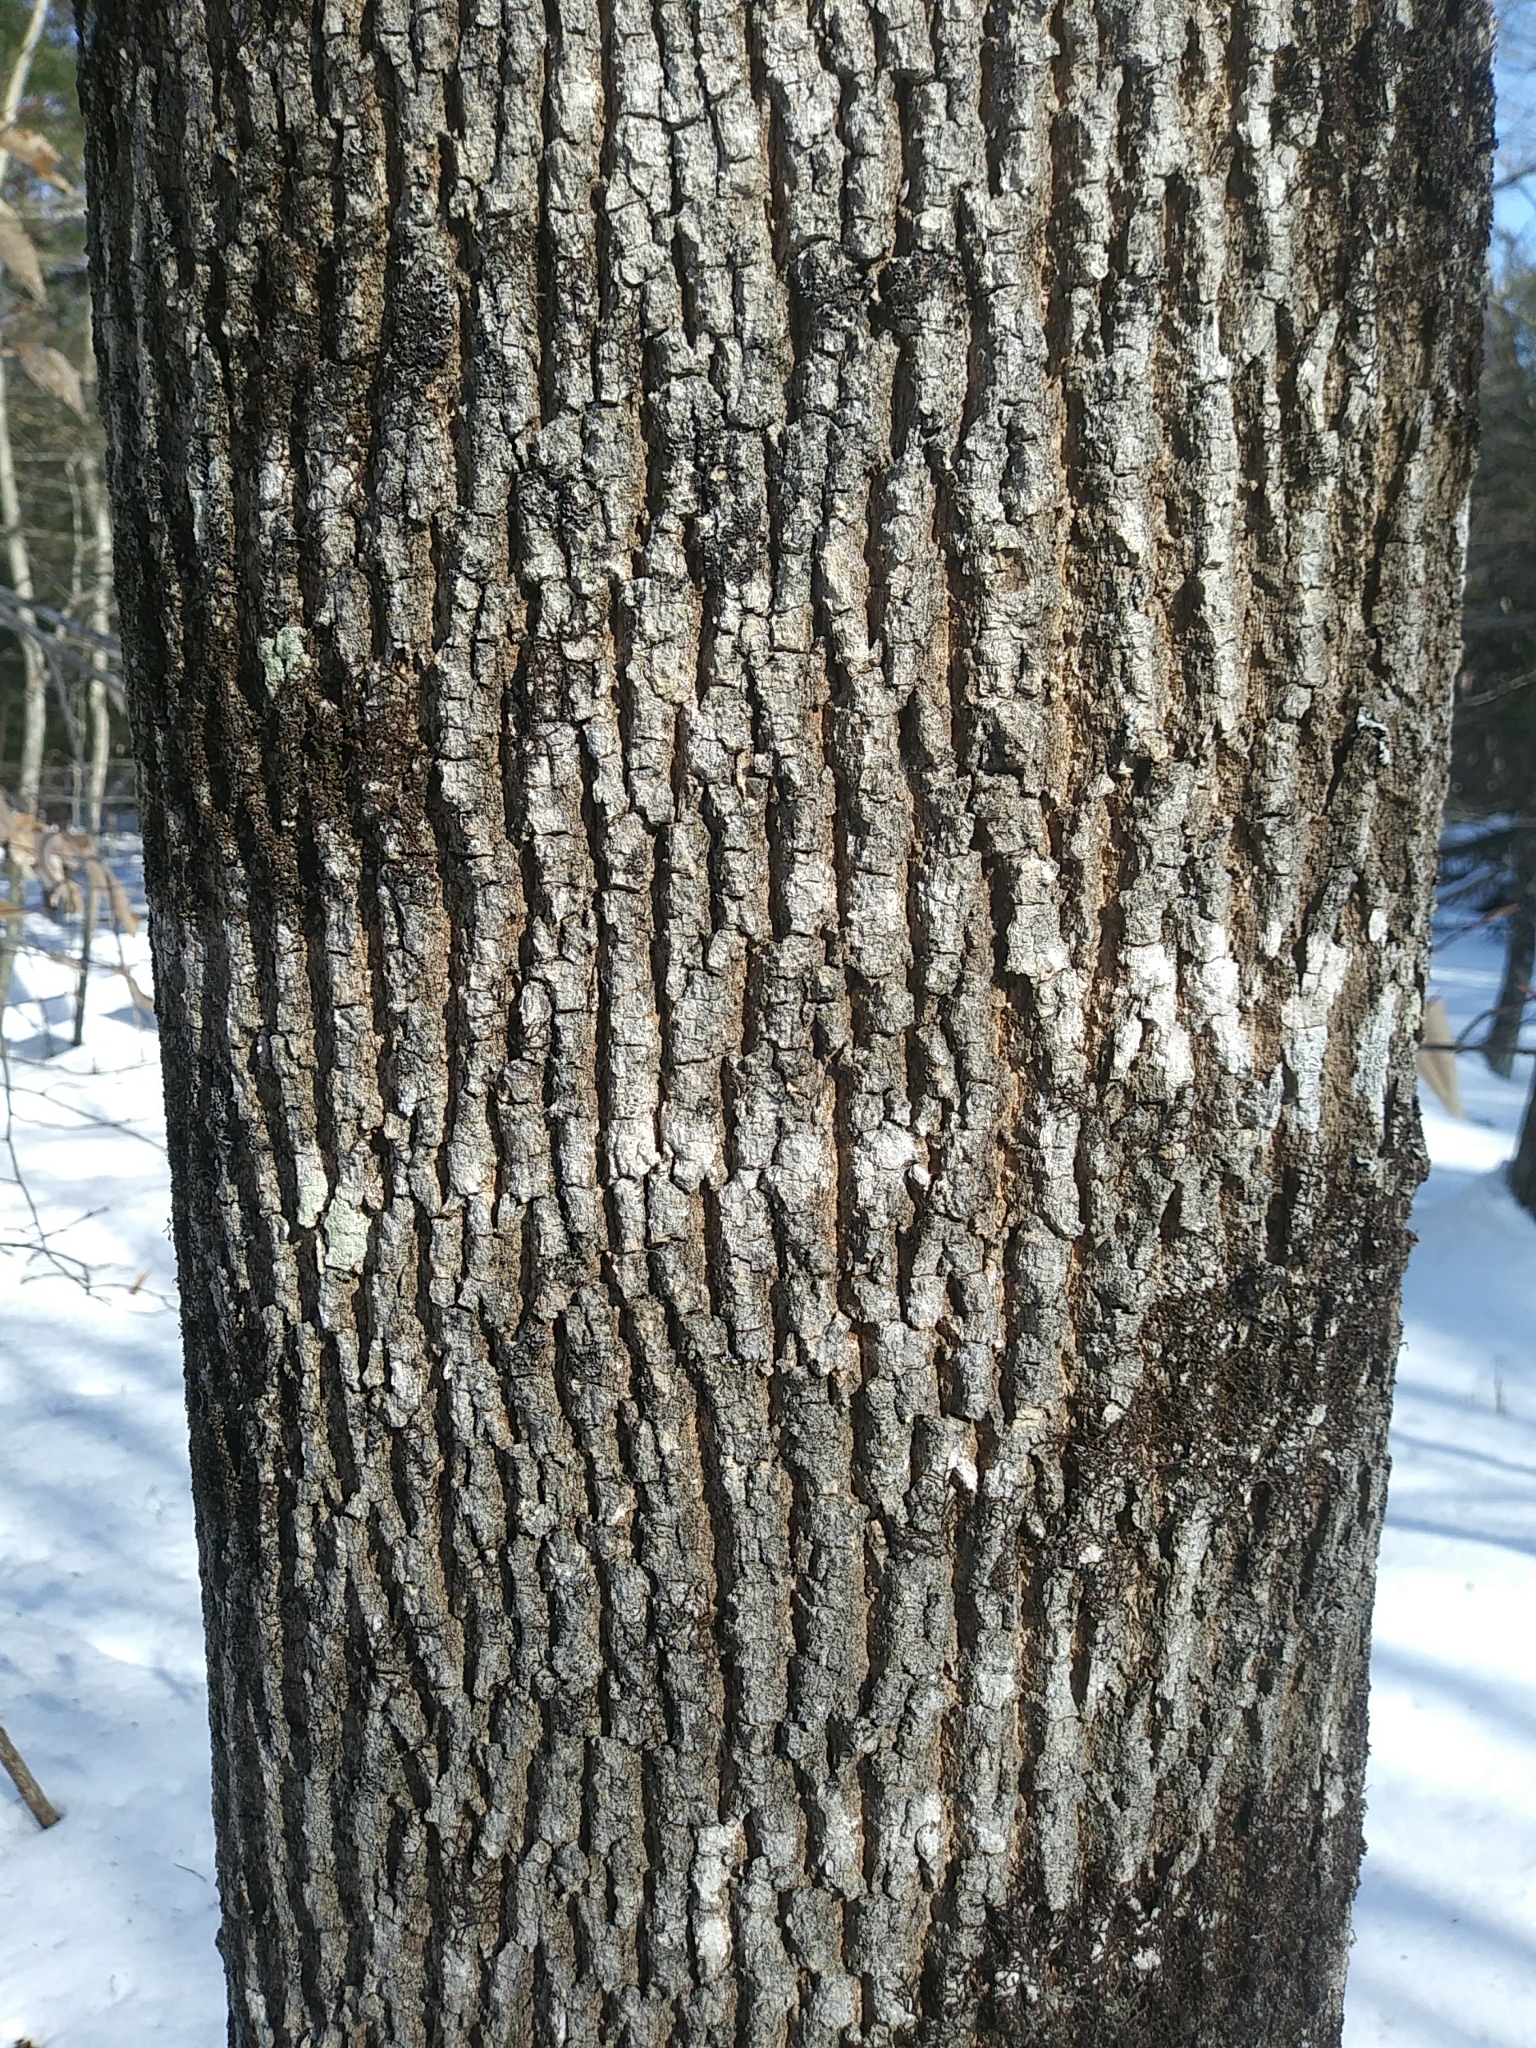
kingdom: Plantae
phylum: Tracheophyta
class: Magnoliopsida
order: Lamiales
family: Oleaceae
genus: Fraxinus
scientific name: Fraxinus americana
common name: White ash
